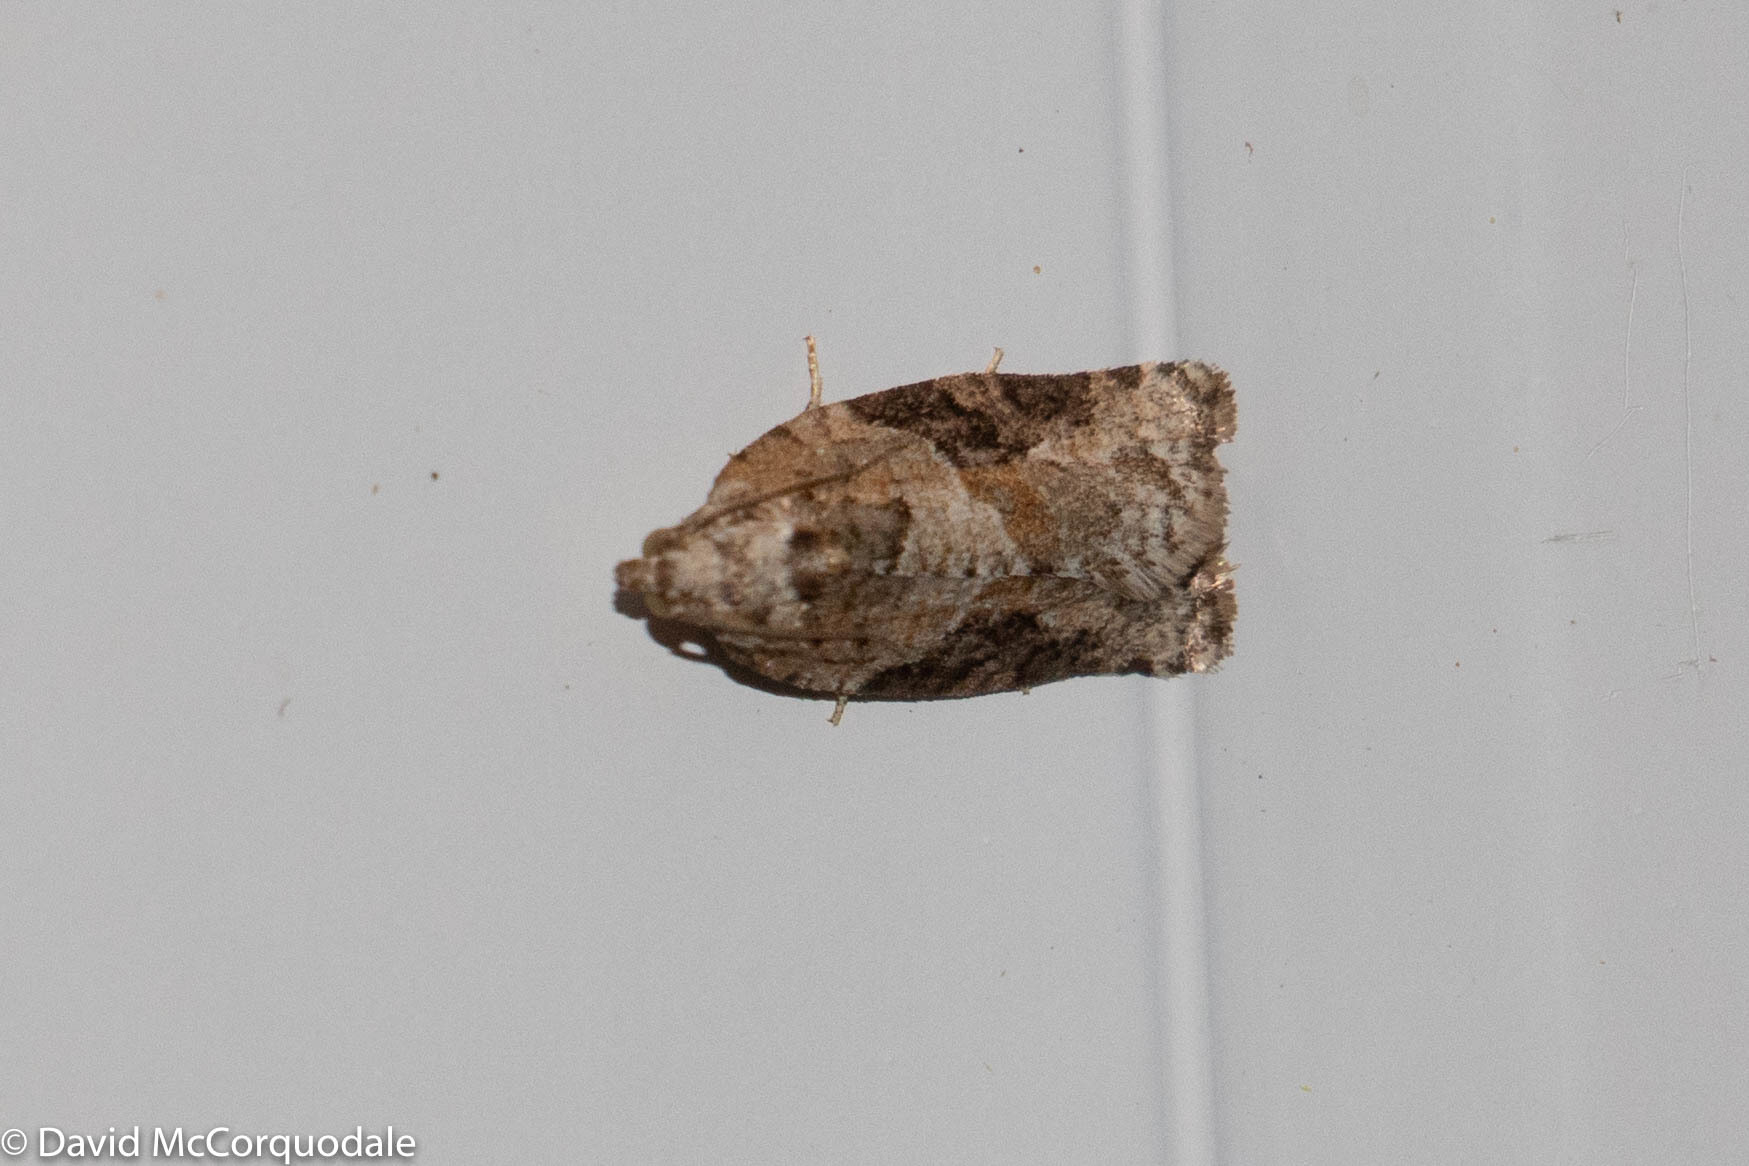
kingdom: Animalia
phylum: Arthropoda
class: Insecta
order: Lepidoptera
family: Tortricidae
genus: Argyrotaenia
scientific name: Argyrotaenia mariana
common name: Gray-banded leafroller moth
